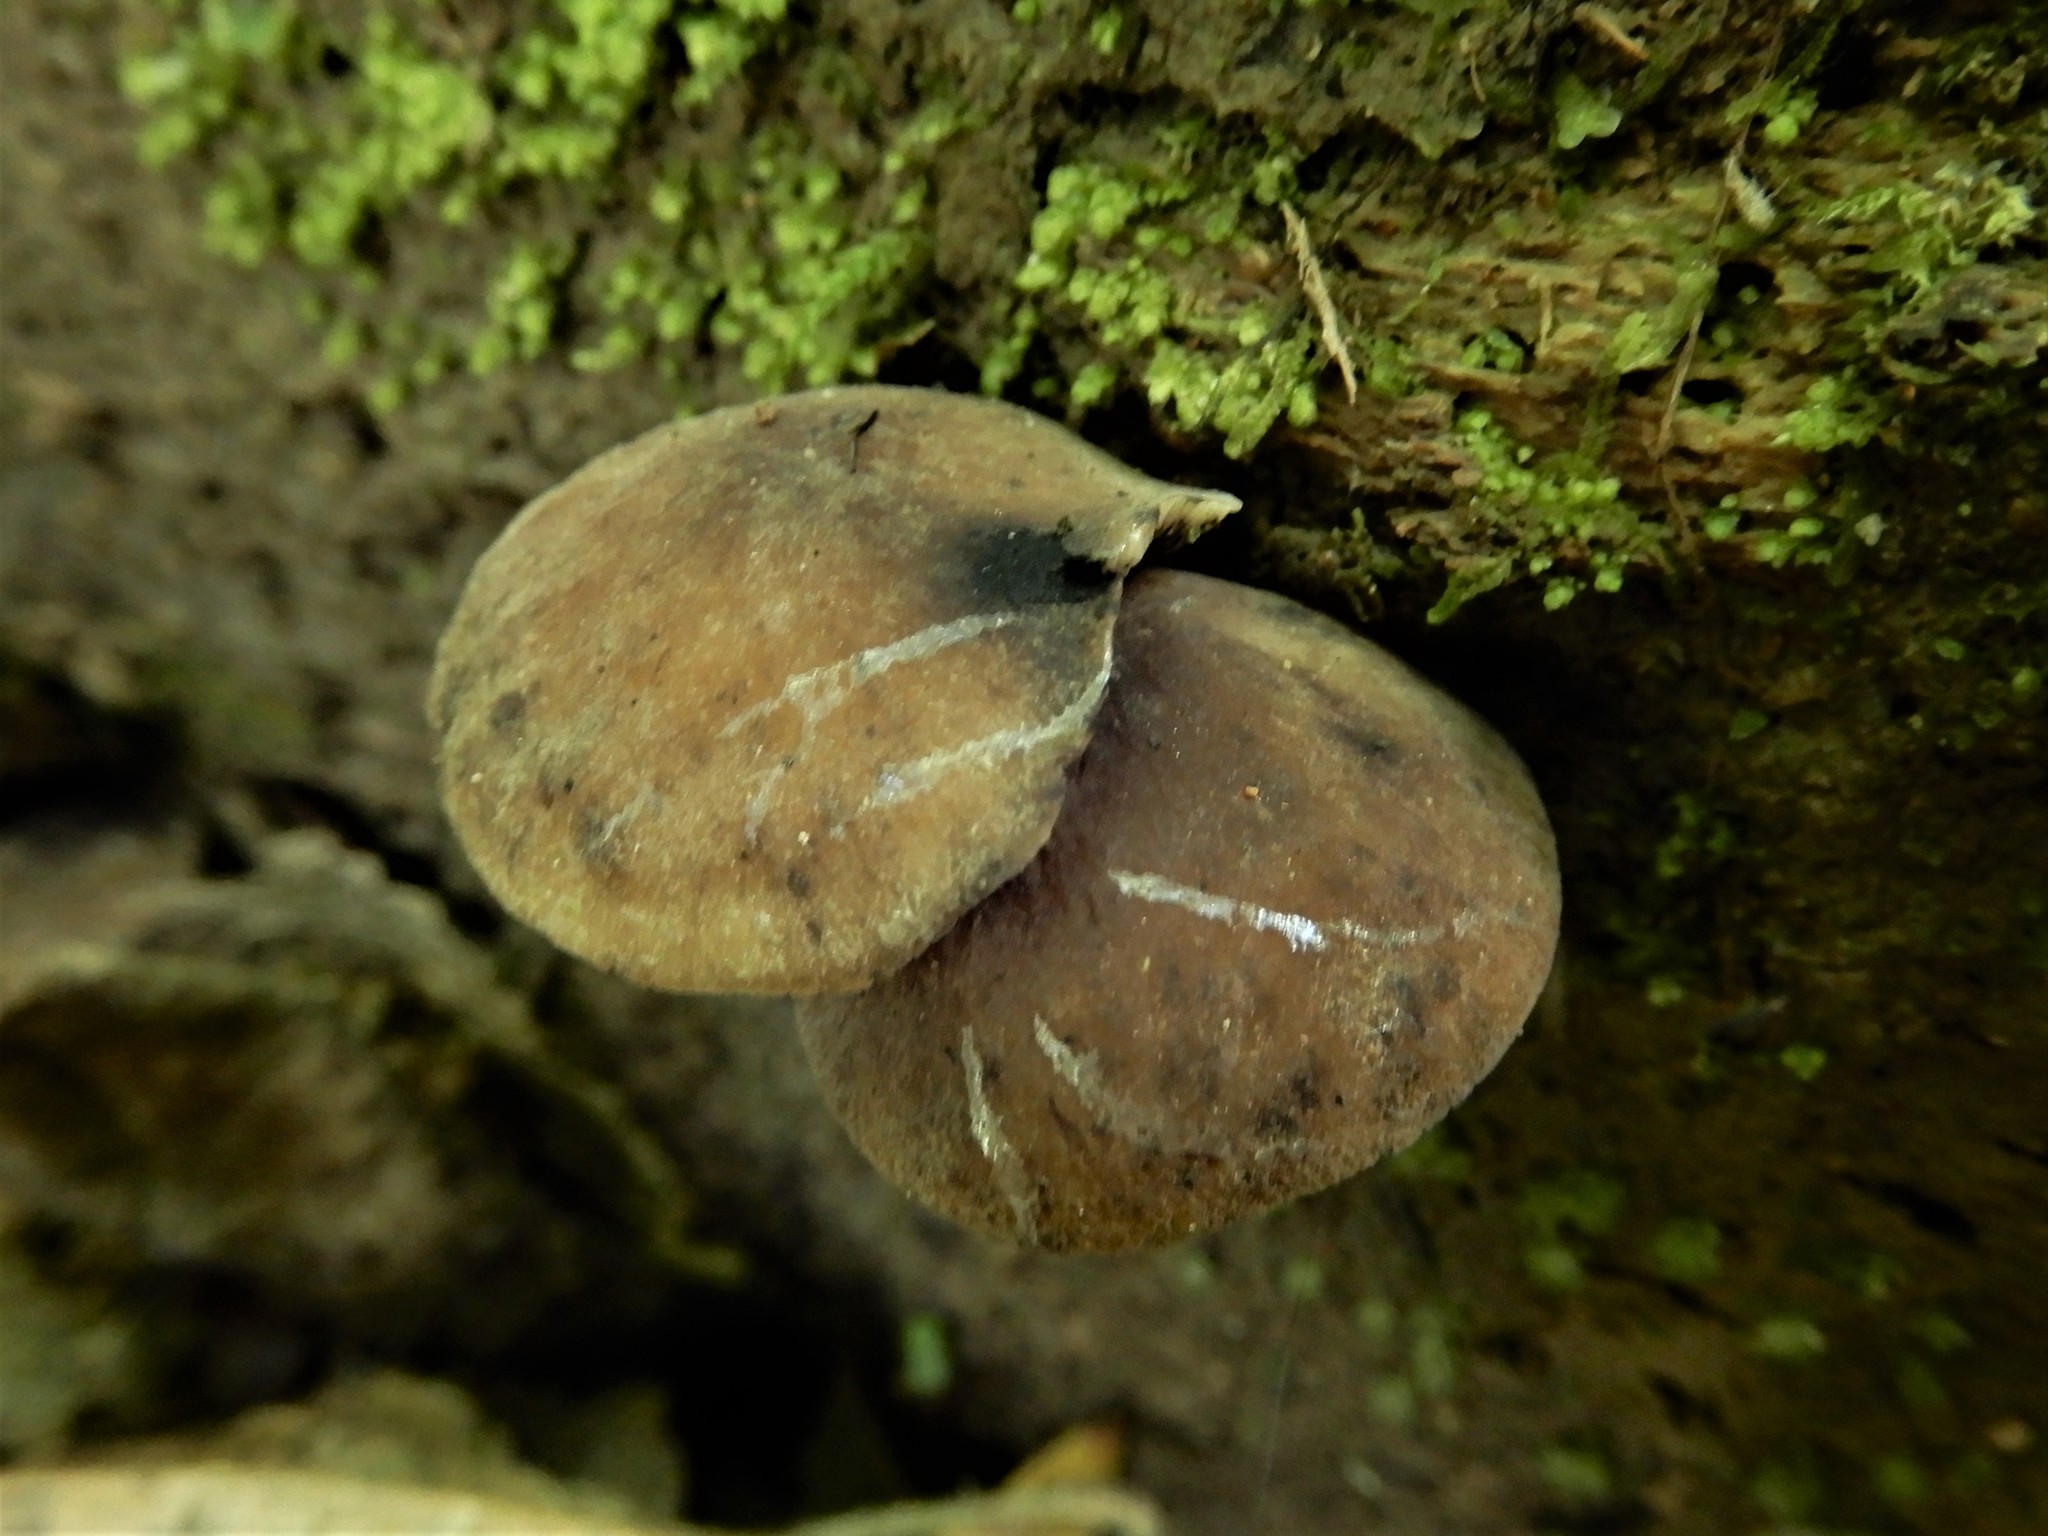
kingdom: Fungi
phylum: Basidiomycota
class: Agaricomycetes
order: Agaricales
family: Mycenaceae
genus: Hydropus
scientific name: Hydropus nigrita
